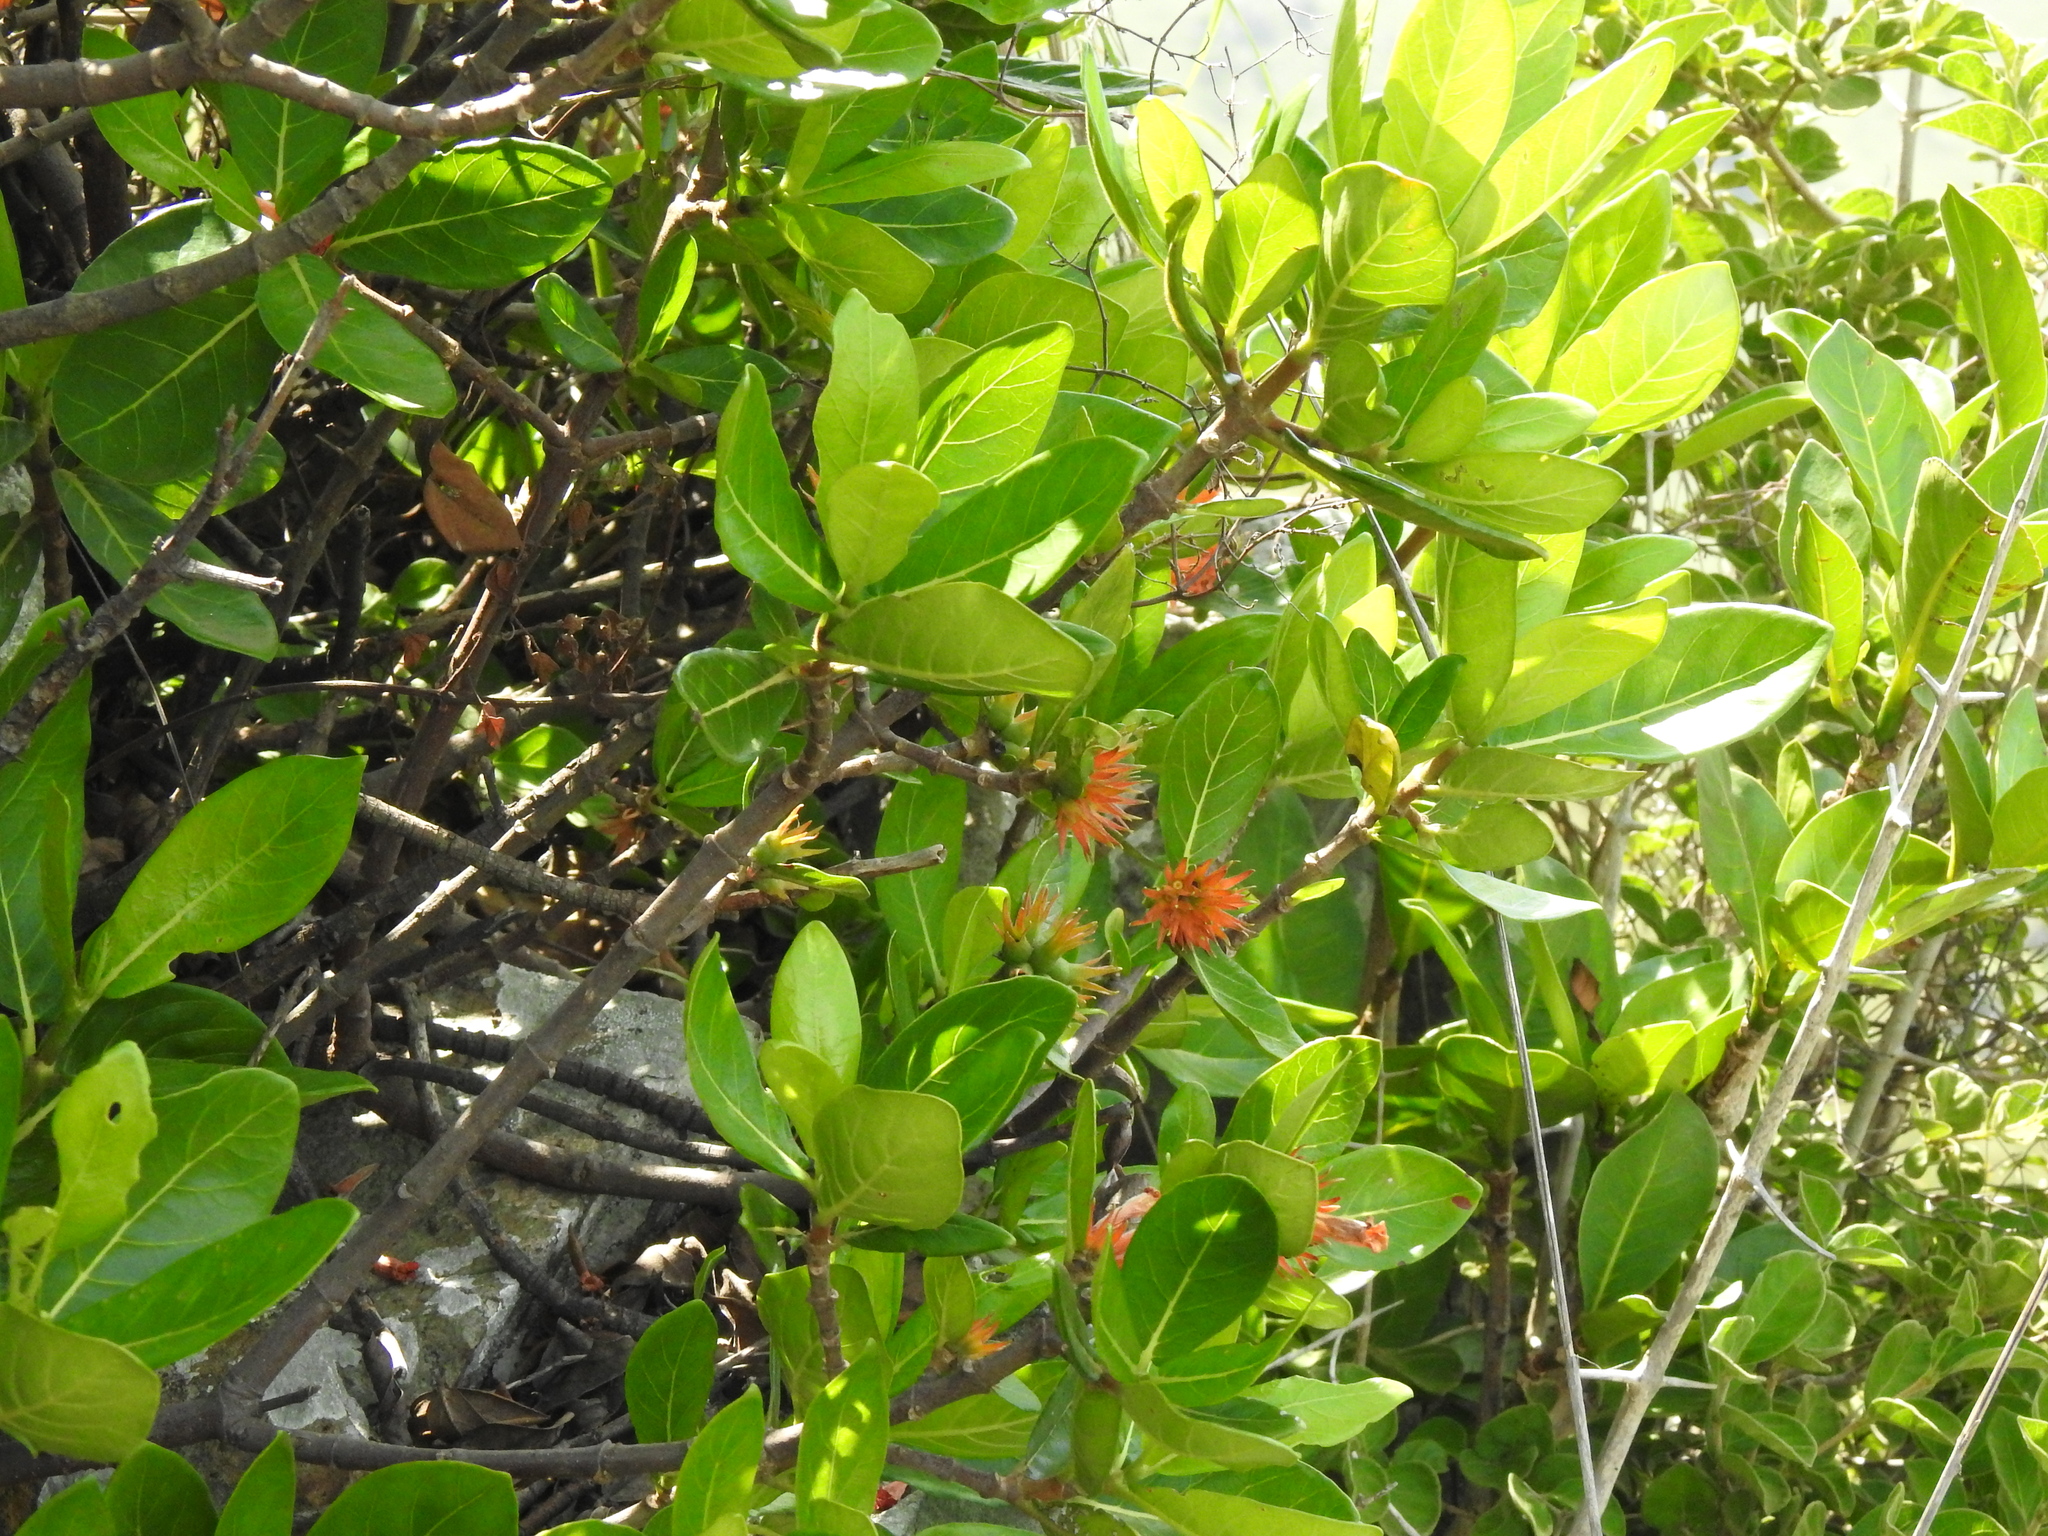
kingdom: Plantae
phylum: Tracheophyta
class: Magnoliopsida
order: Gentianales
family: Rubiaceae
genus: Burchellia
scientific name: Burchellia bubalina
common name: Wild pomegranate
